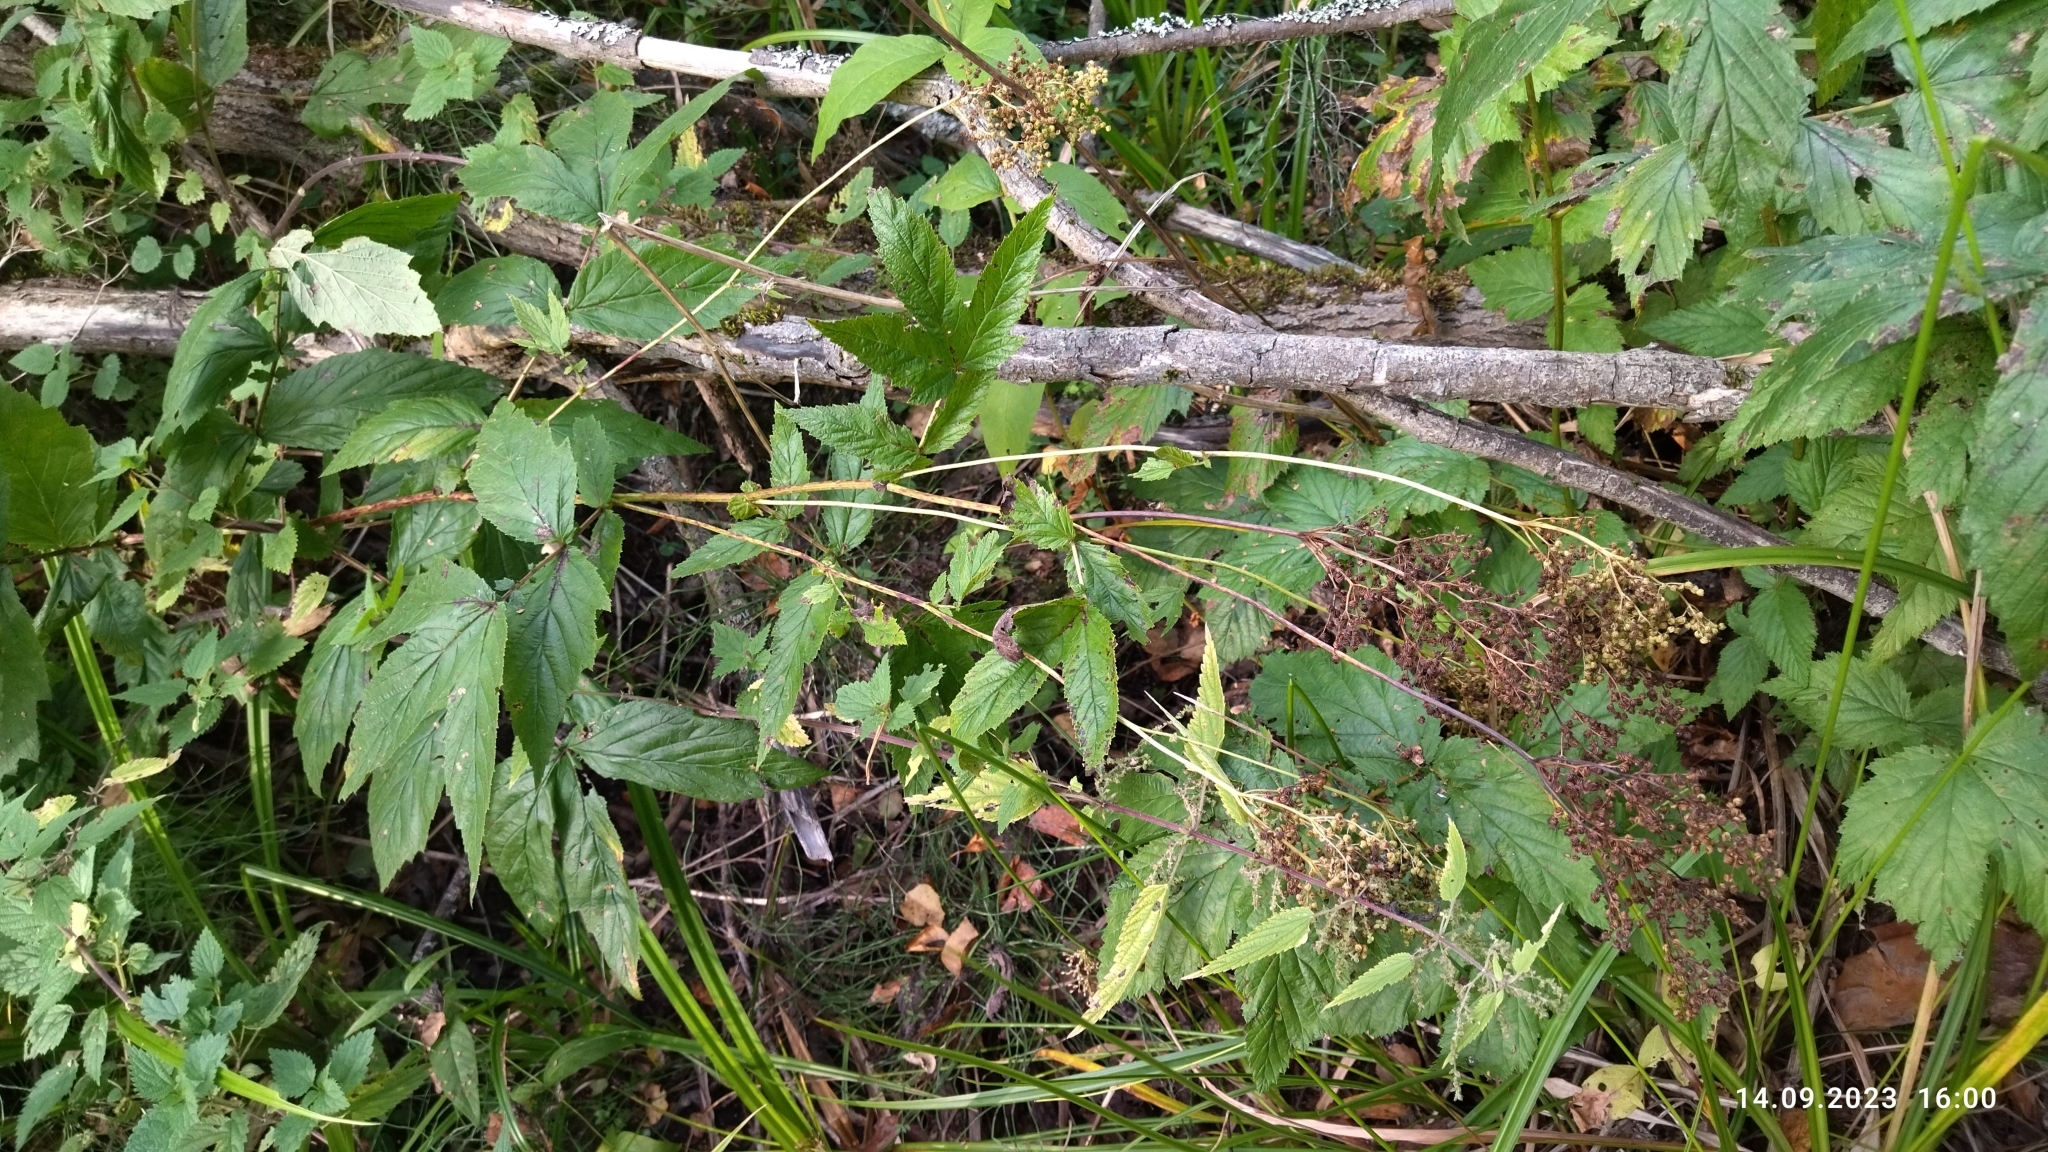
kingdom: Plantae
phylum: Tracheophyta
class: Magnoliopsida
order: Rosales
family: Rosaceae
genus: Filipendula
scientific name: Filipendula ulmaria
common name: Meadowsweet
